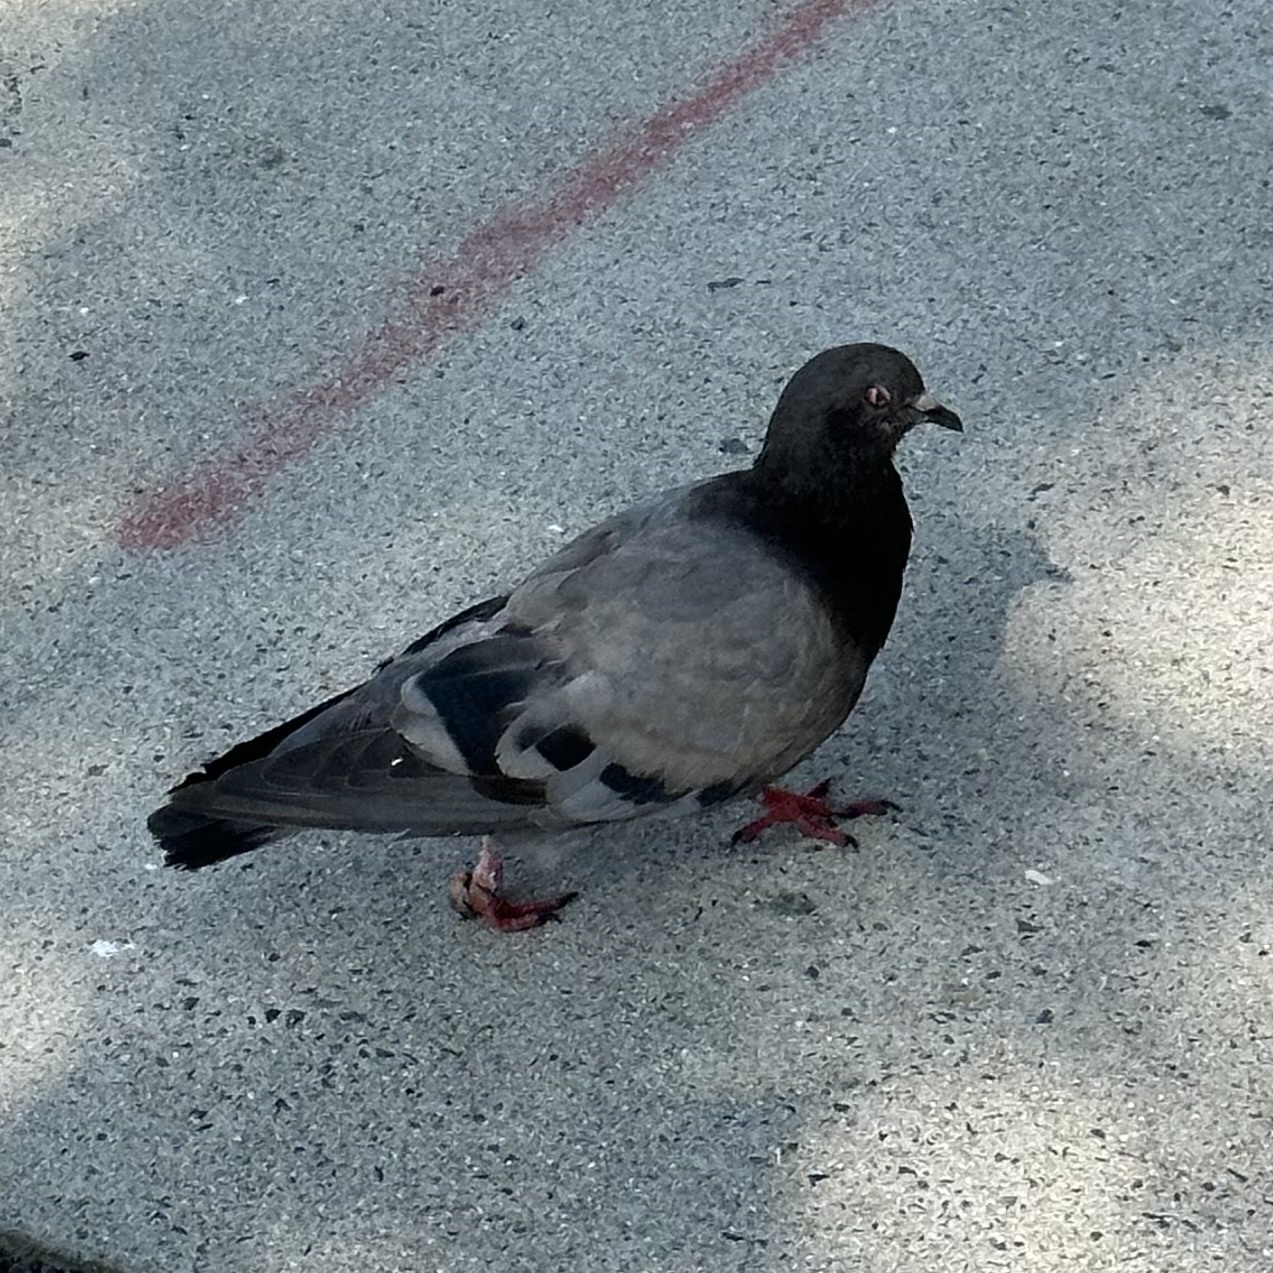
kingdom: Animalia
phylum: Chordata
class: Aves
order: Columbiformes
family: Columbidae
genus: Columba
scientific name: Columba livia
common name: Rock pigeon
